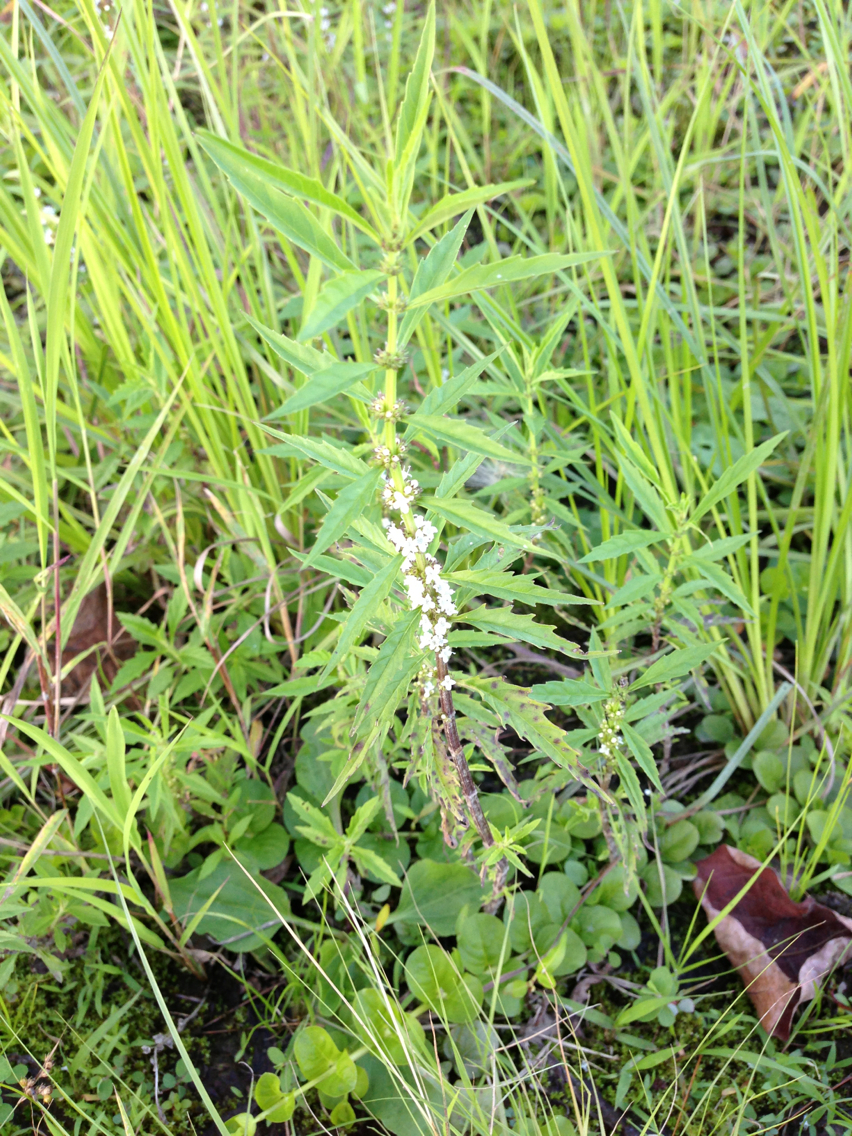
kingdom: Plantae
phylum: Tracheophyta
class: Magnoliopsida
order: Lamiales
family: Lamiaceae
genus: Lycopus
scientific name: Lycopus americanus
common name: American bugleweed
